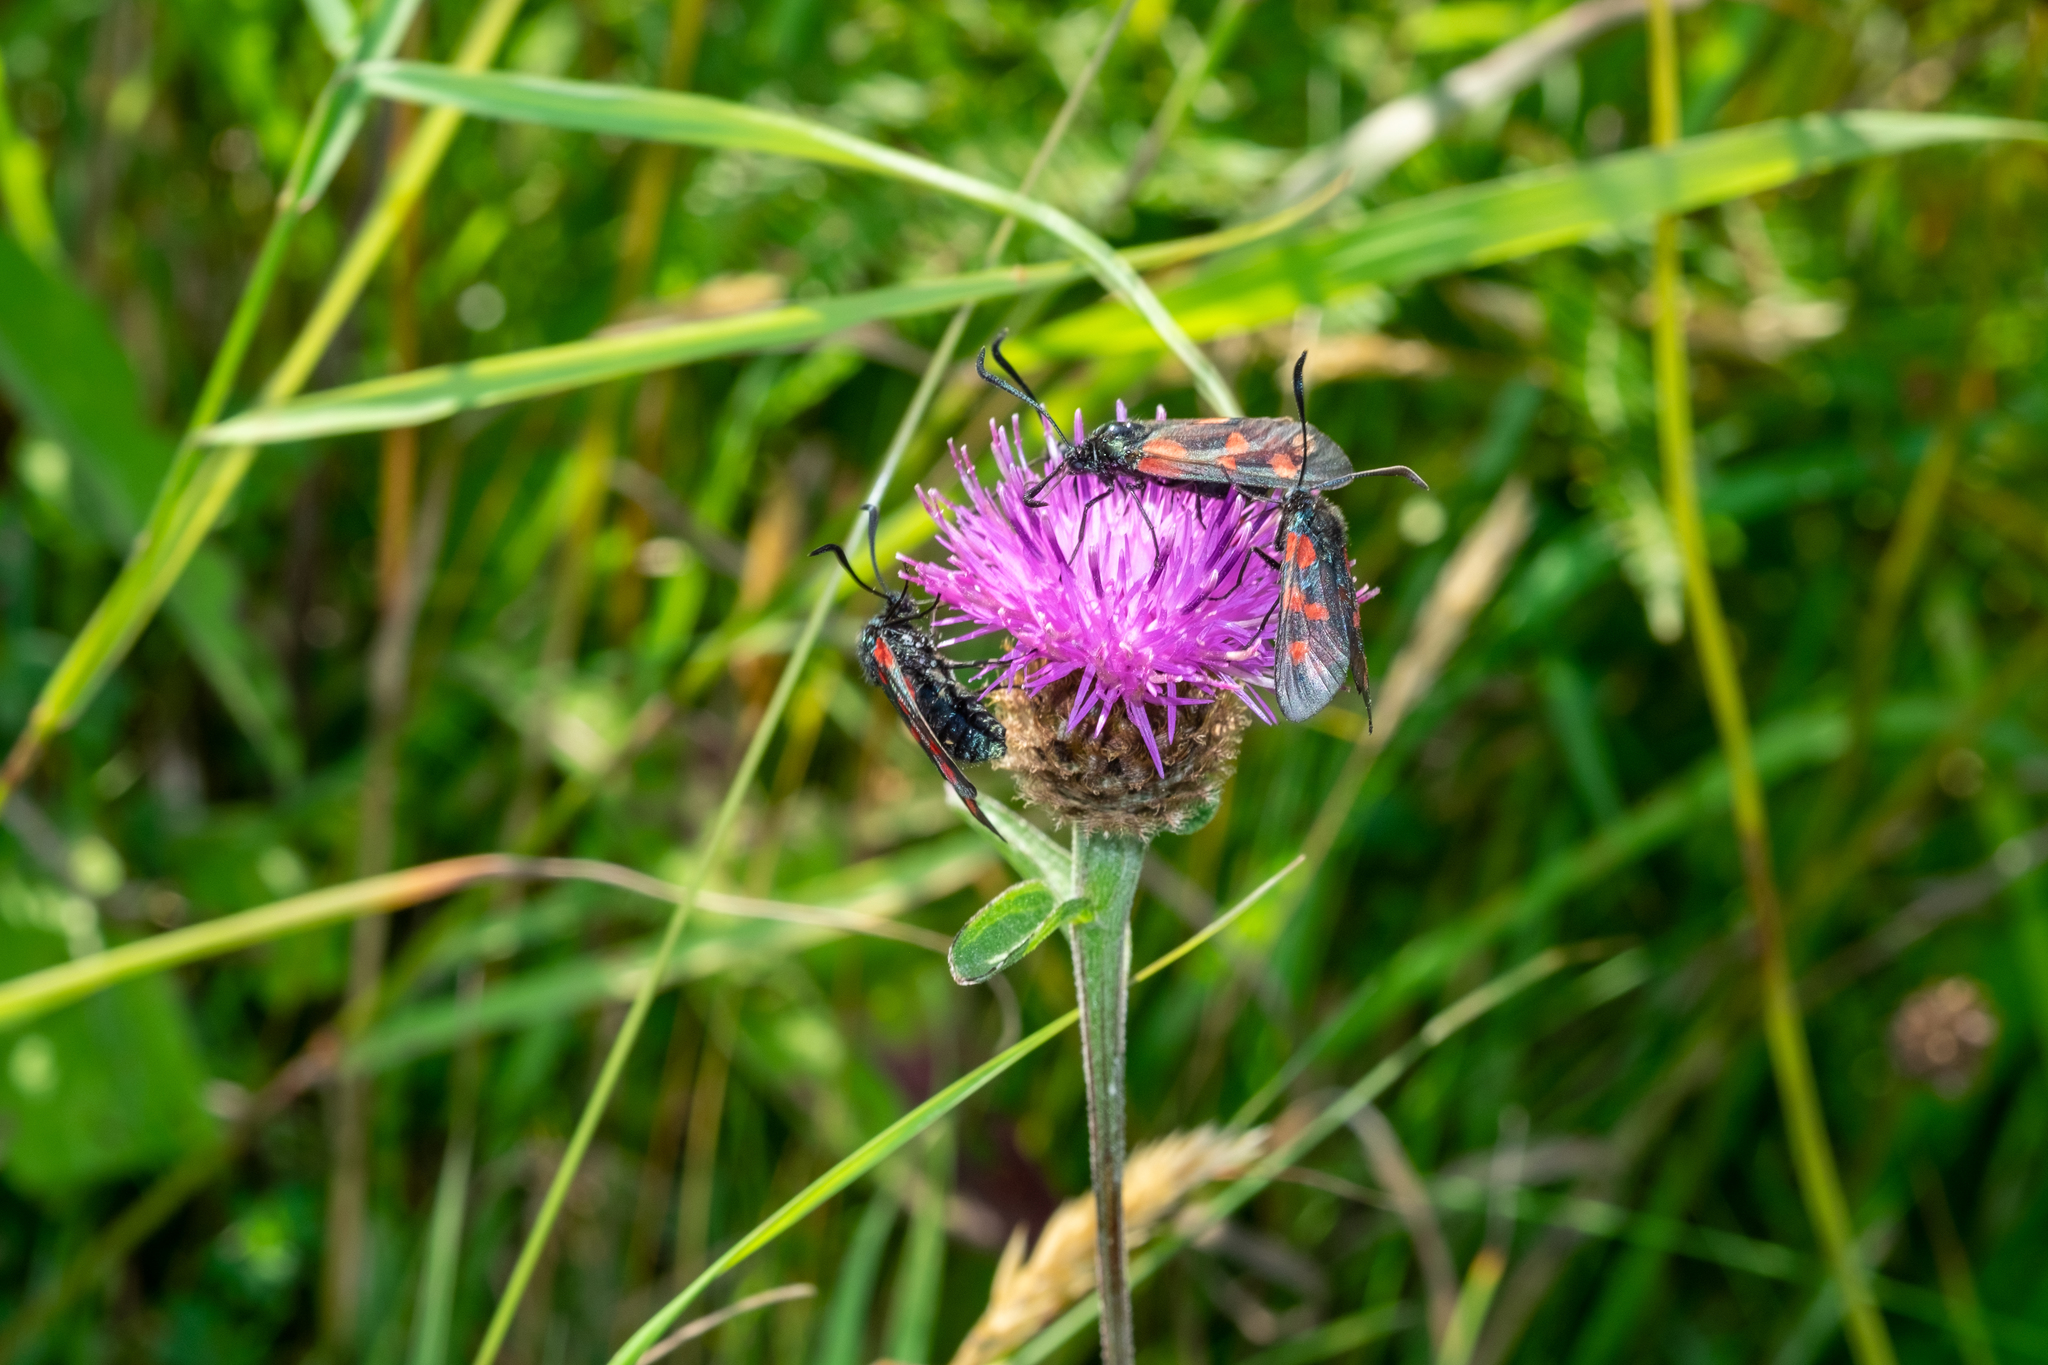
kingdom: Animalia
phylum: Arthropoda
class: Insecta
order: Lepidoptera
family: Zygaenidae
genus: Zygaena
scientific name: Zygaena filipendulae
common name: Six-spot burnet
